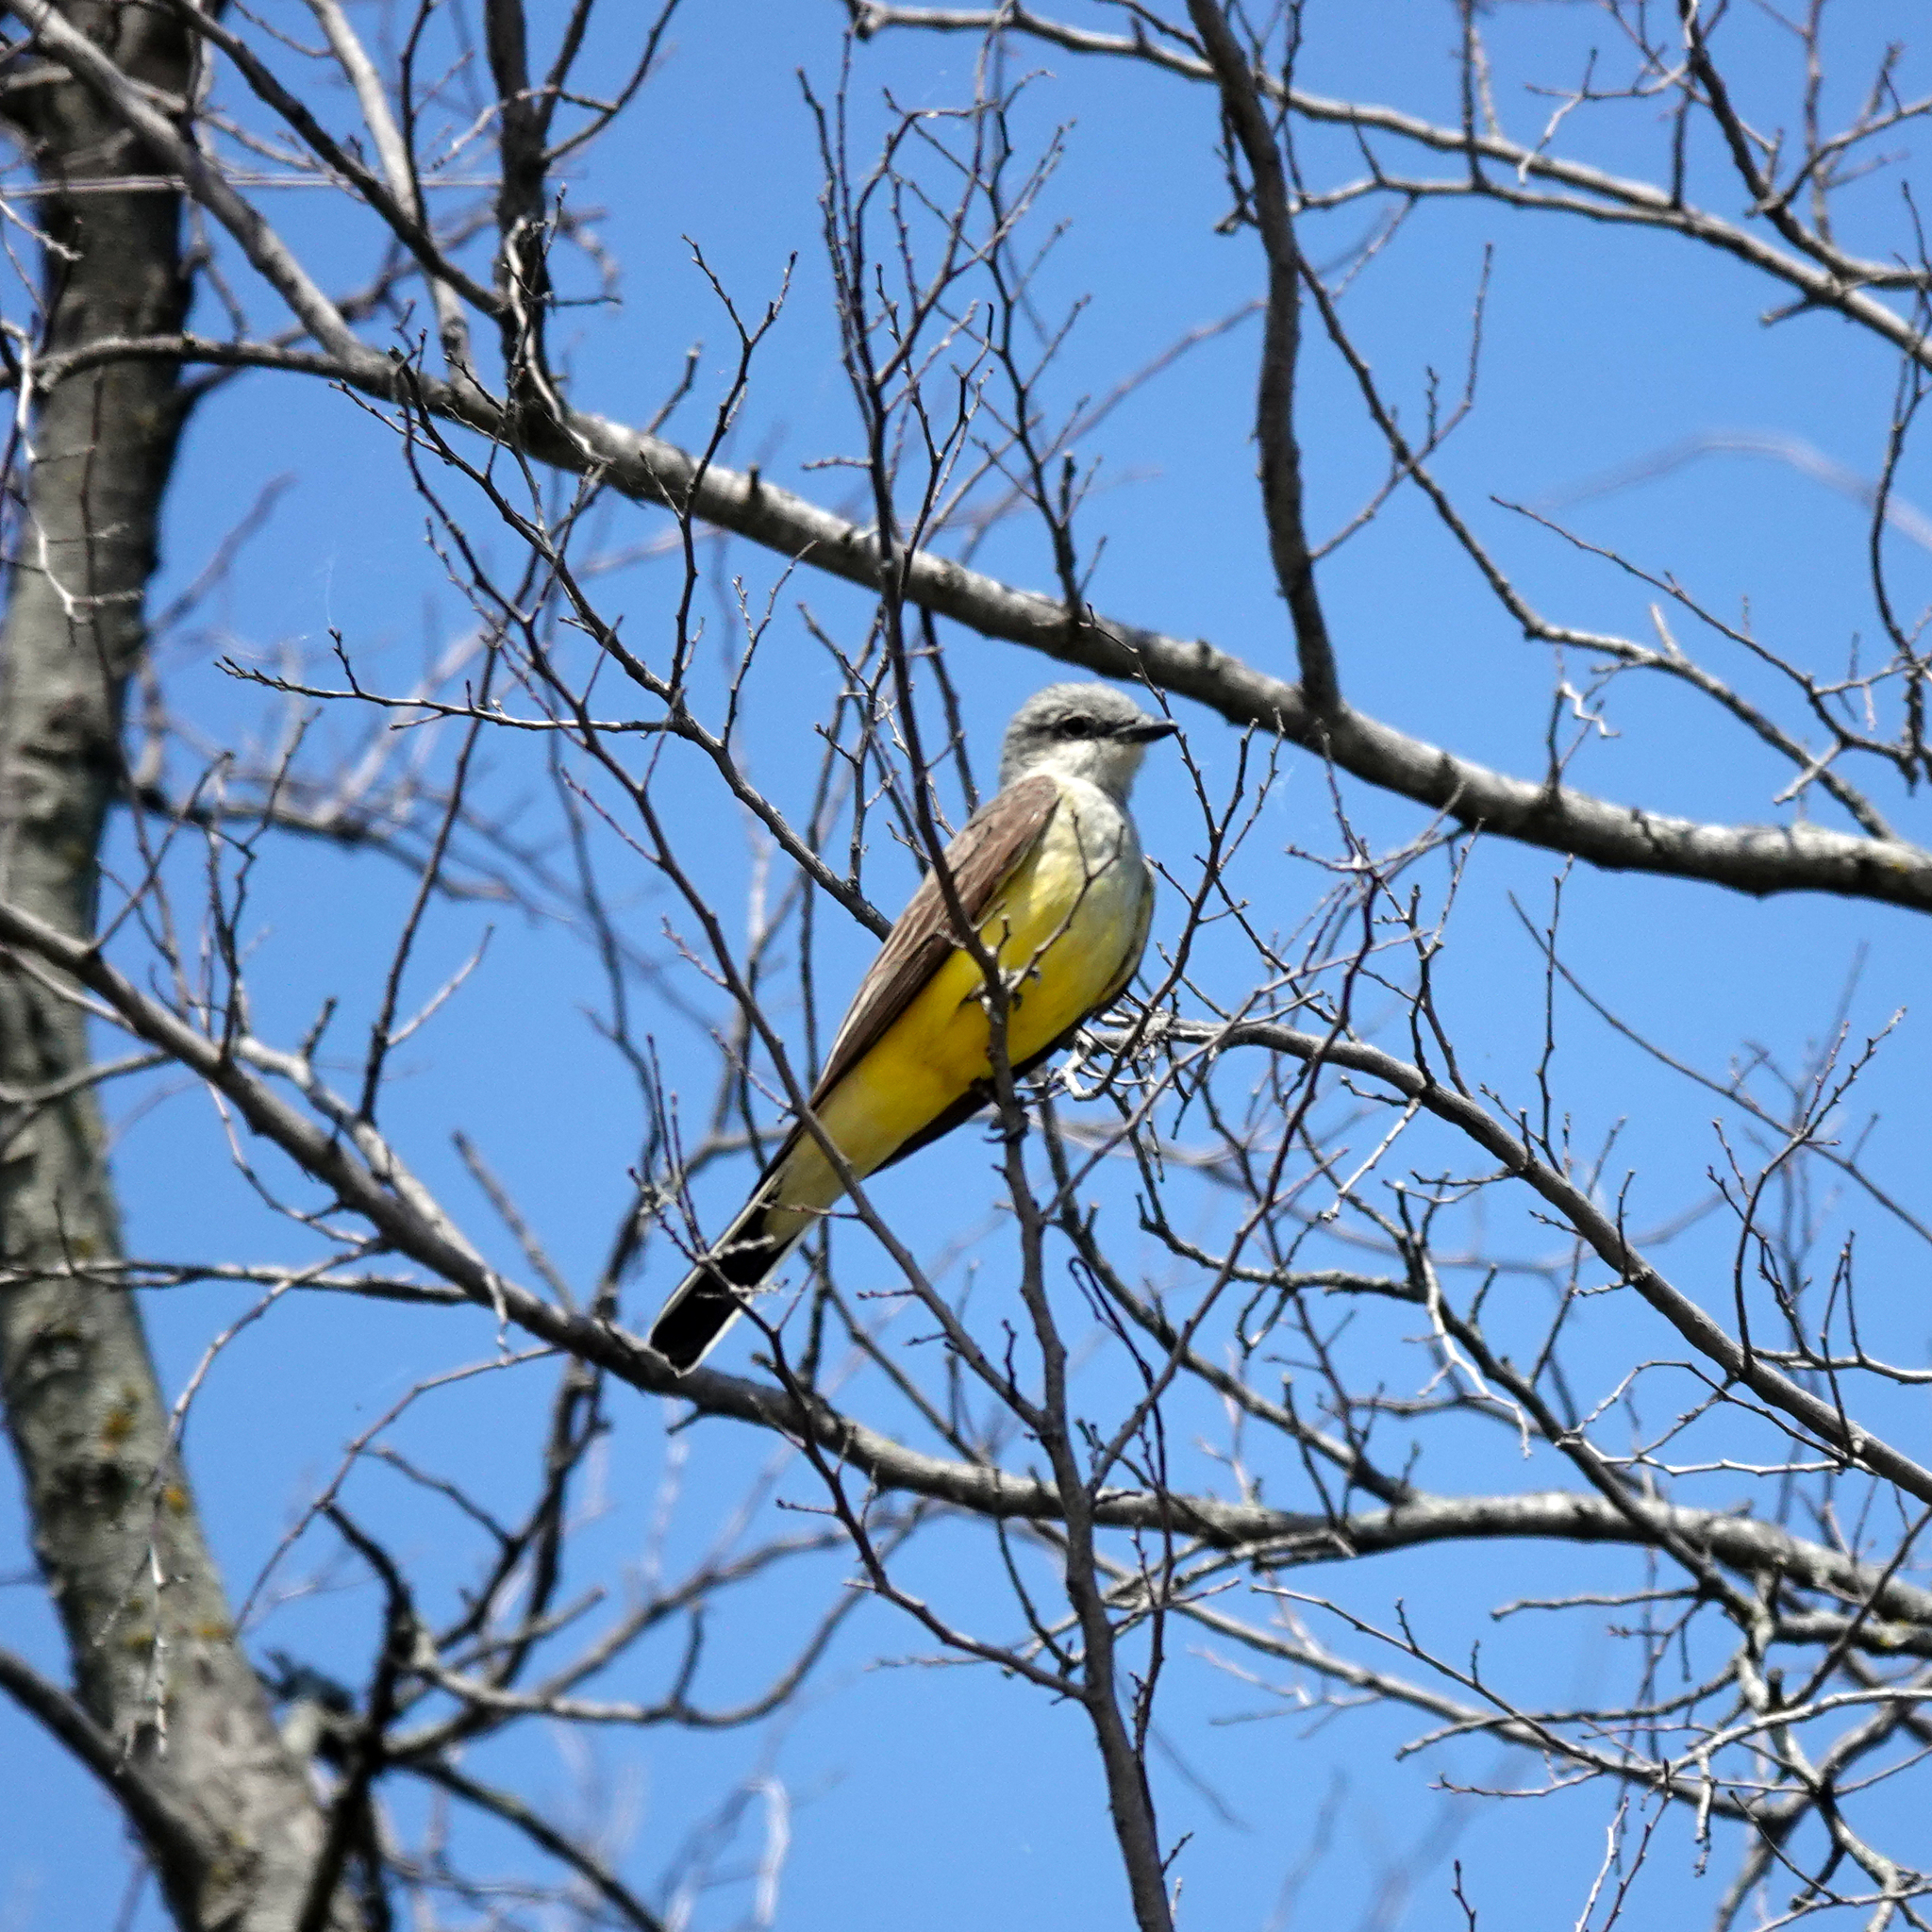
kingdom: Animalia
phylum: Chordata
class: Aves
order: Passeriformes
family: Tyrannidae
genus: Tyrannus
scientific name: Tyrannus verticalis
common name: Western kingbird
